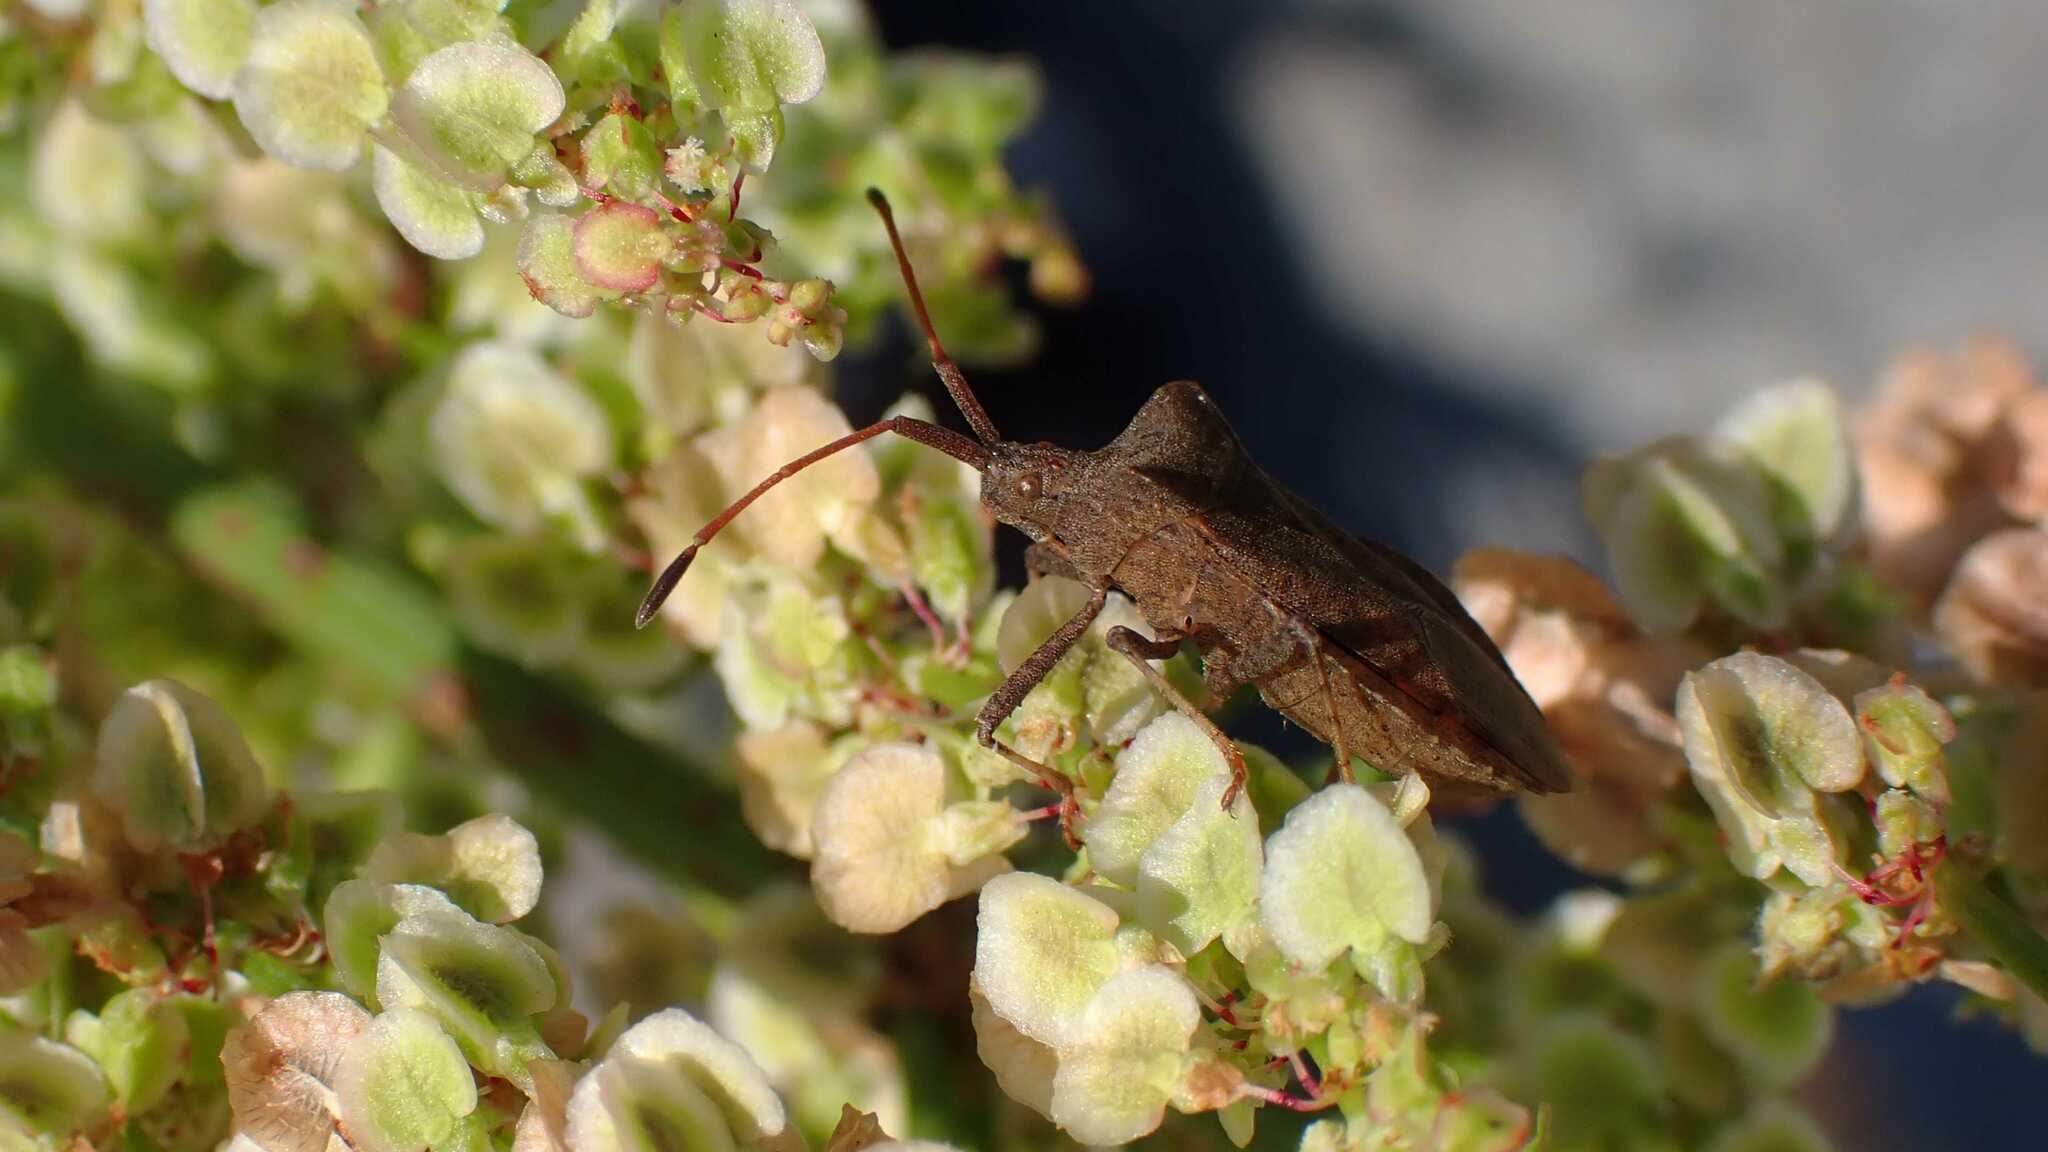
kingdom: Animalia
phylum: Arthropoda
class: Insecta
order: Hemiptera
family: Coreidae
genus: Coreus
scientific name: Coreus marginatus
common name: Dock bug
